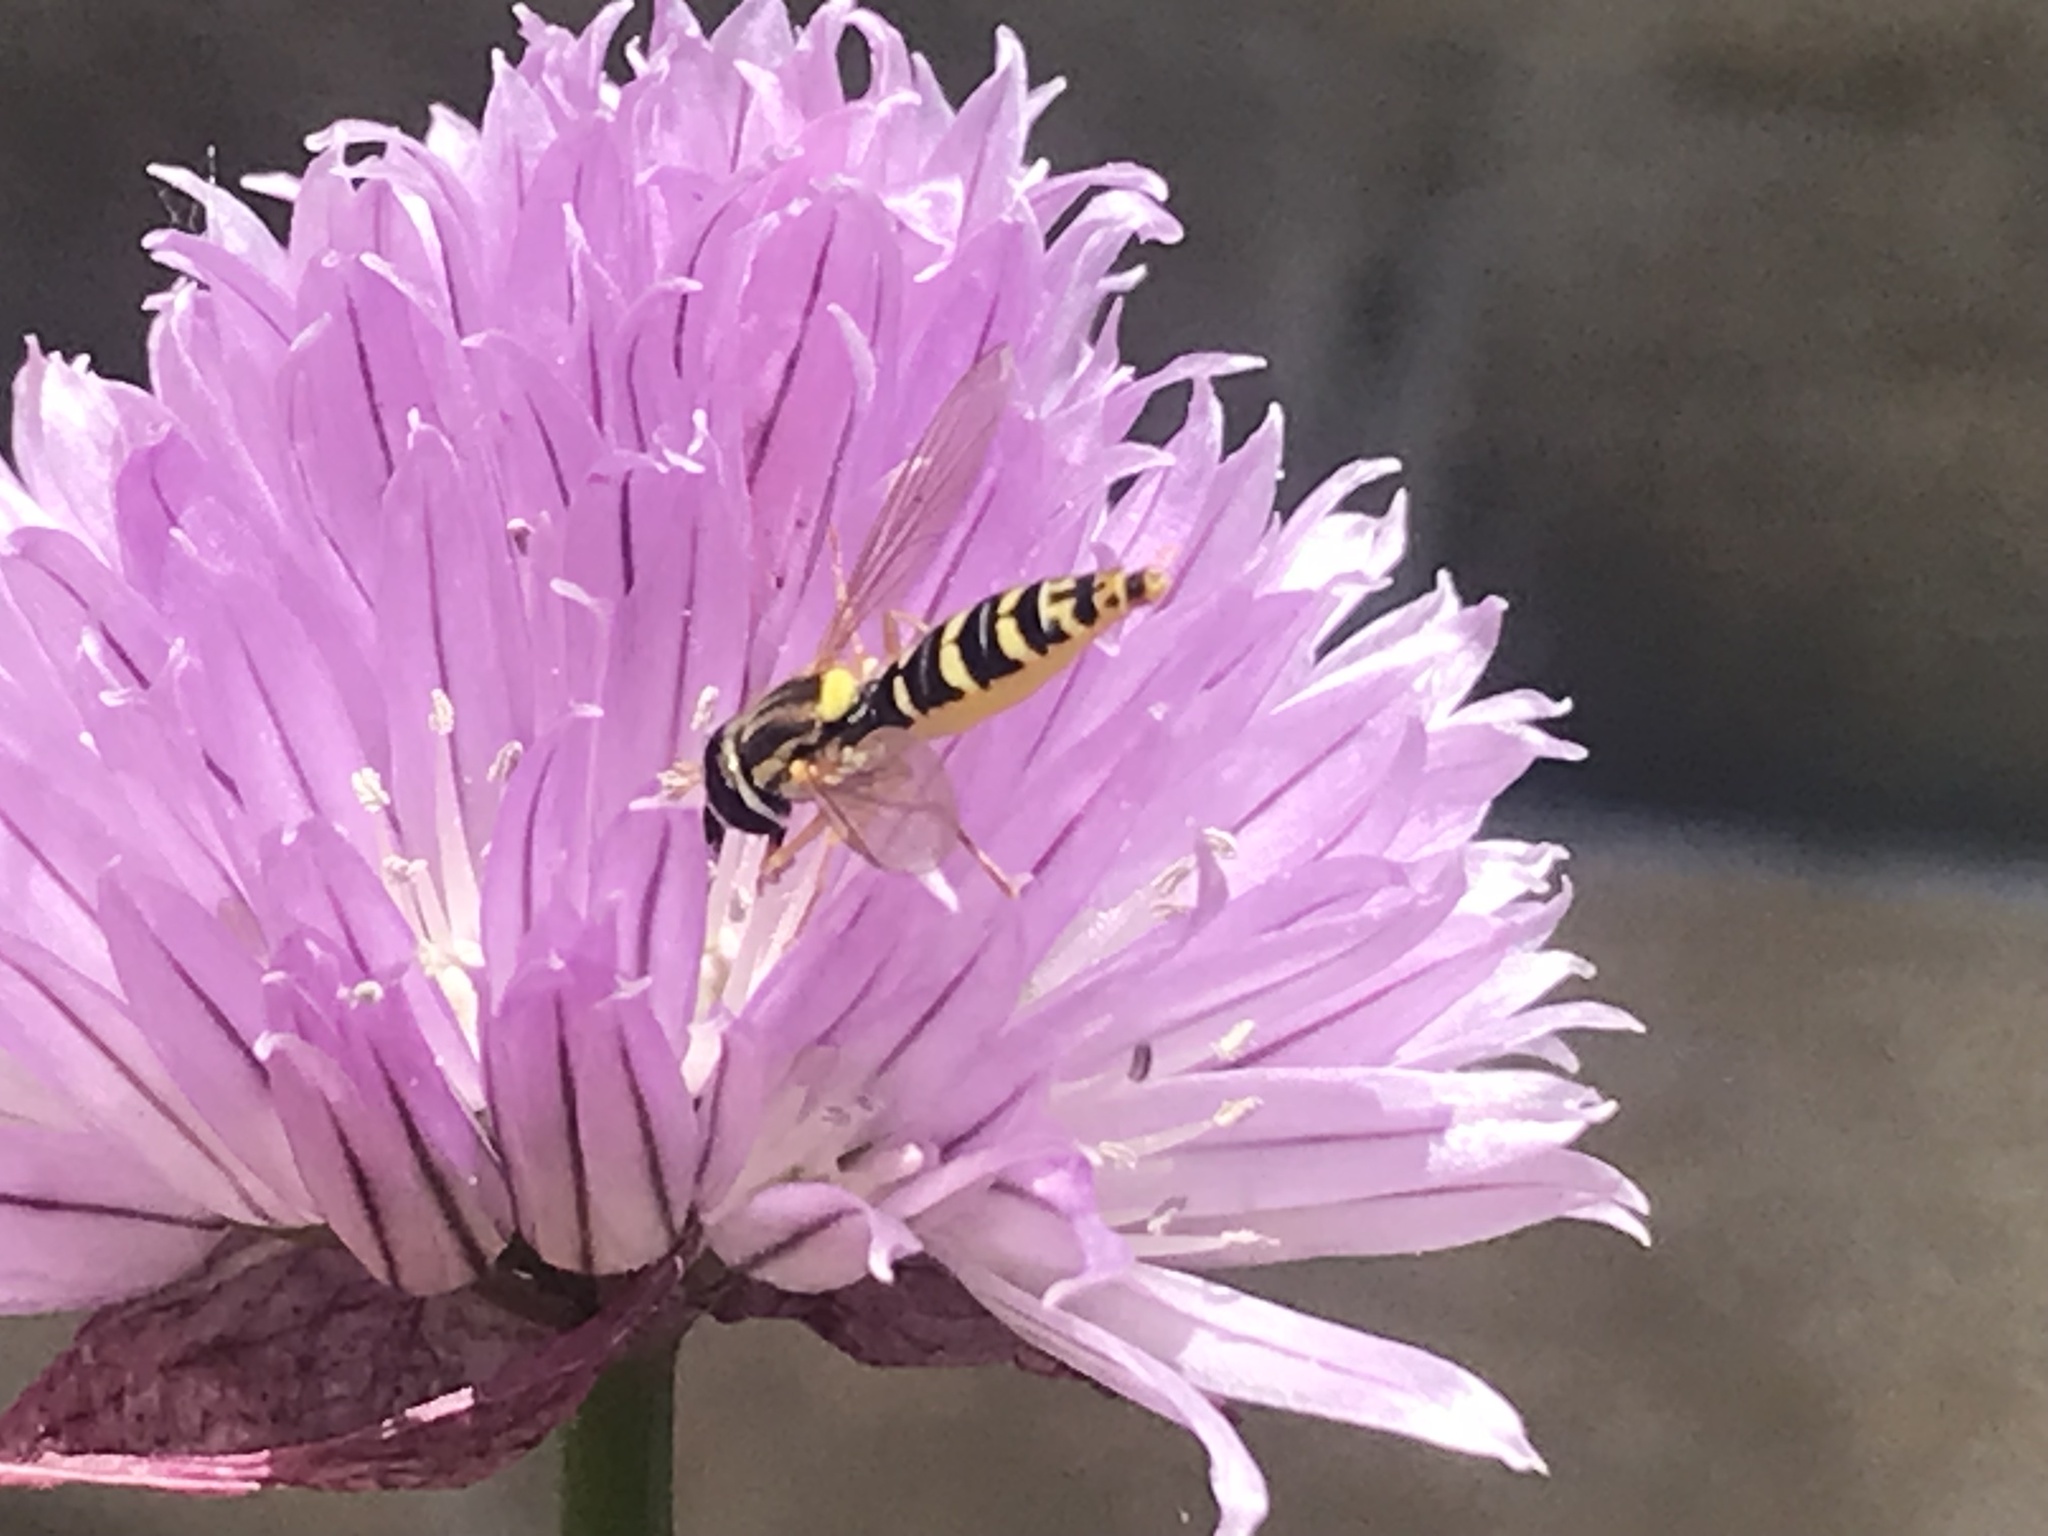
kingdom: Animalia
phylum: Arthropoda
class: Insecta
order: Diptera
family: Syrphidae
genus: Sphaerophoria
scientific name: Sphaerophoria
